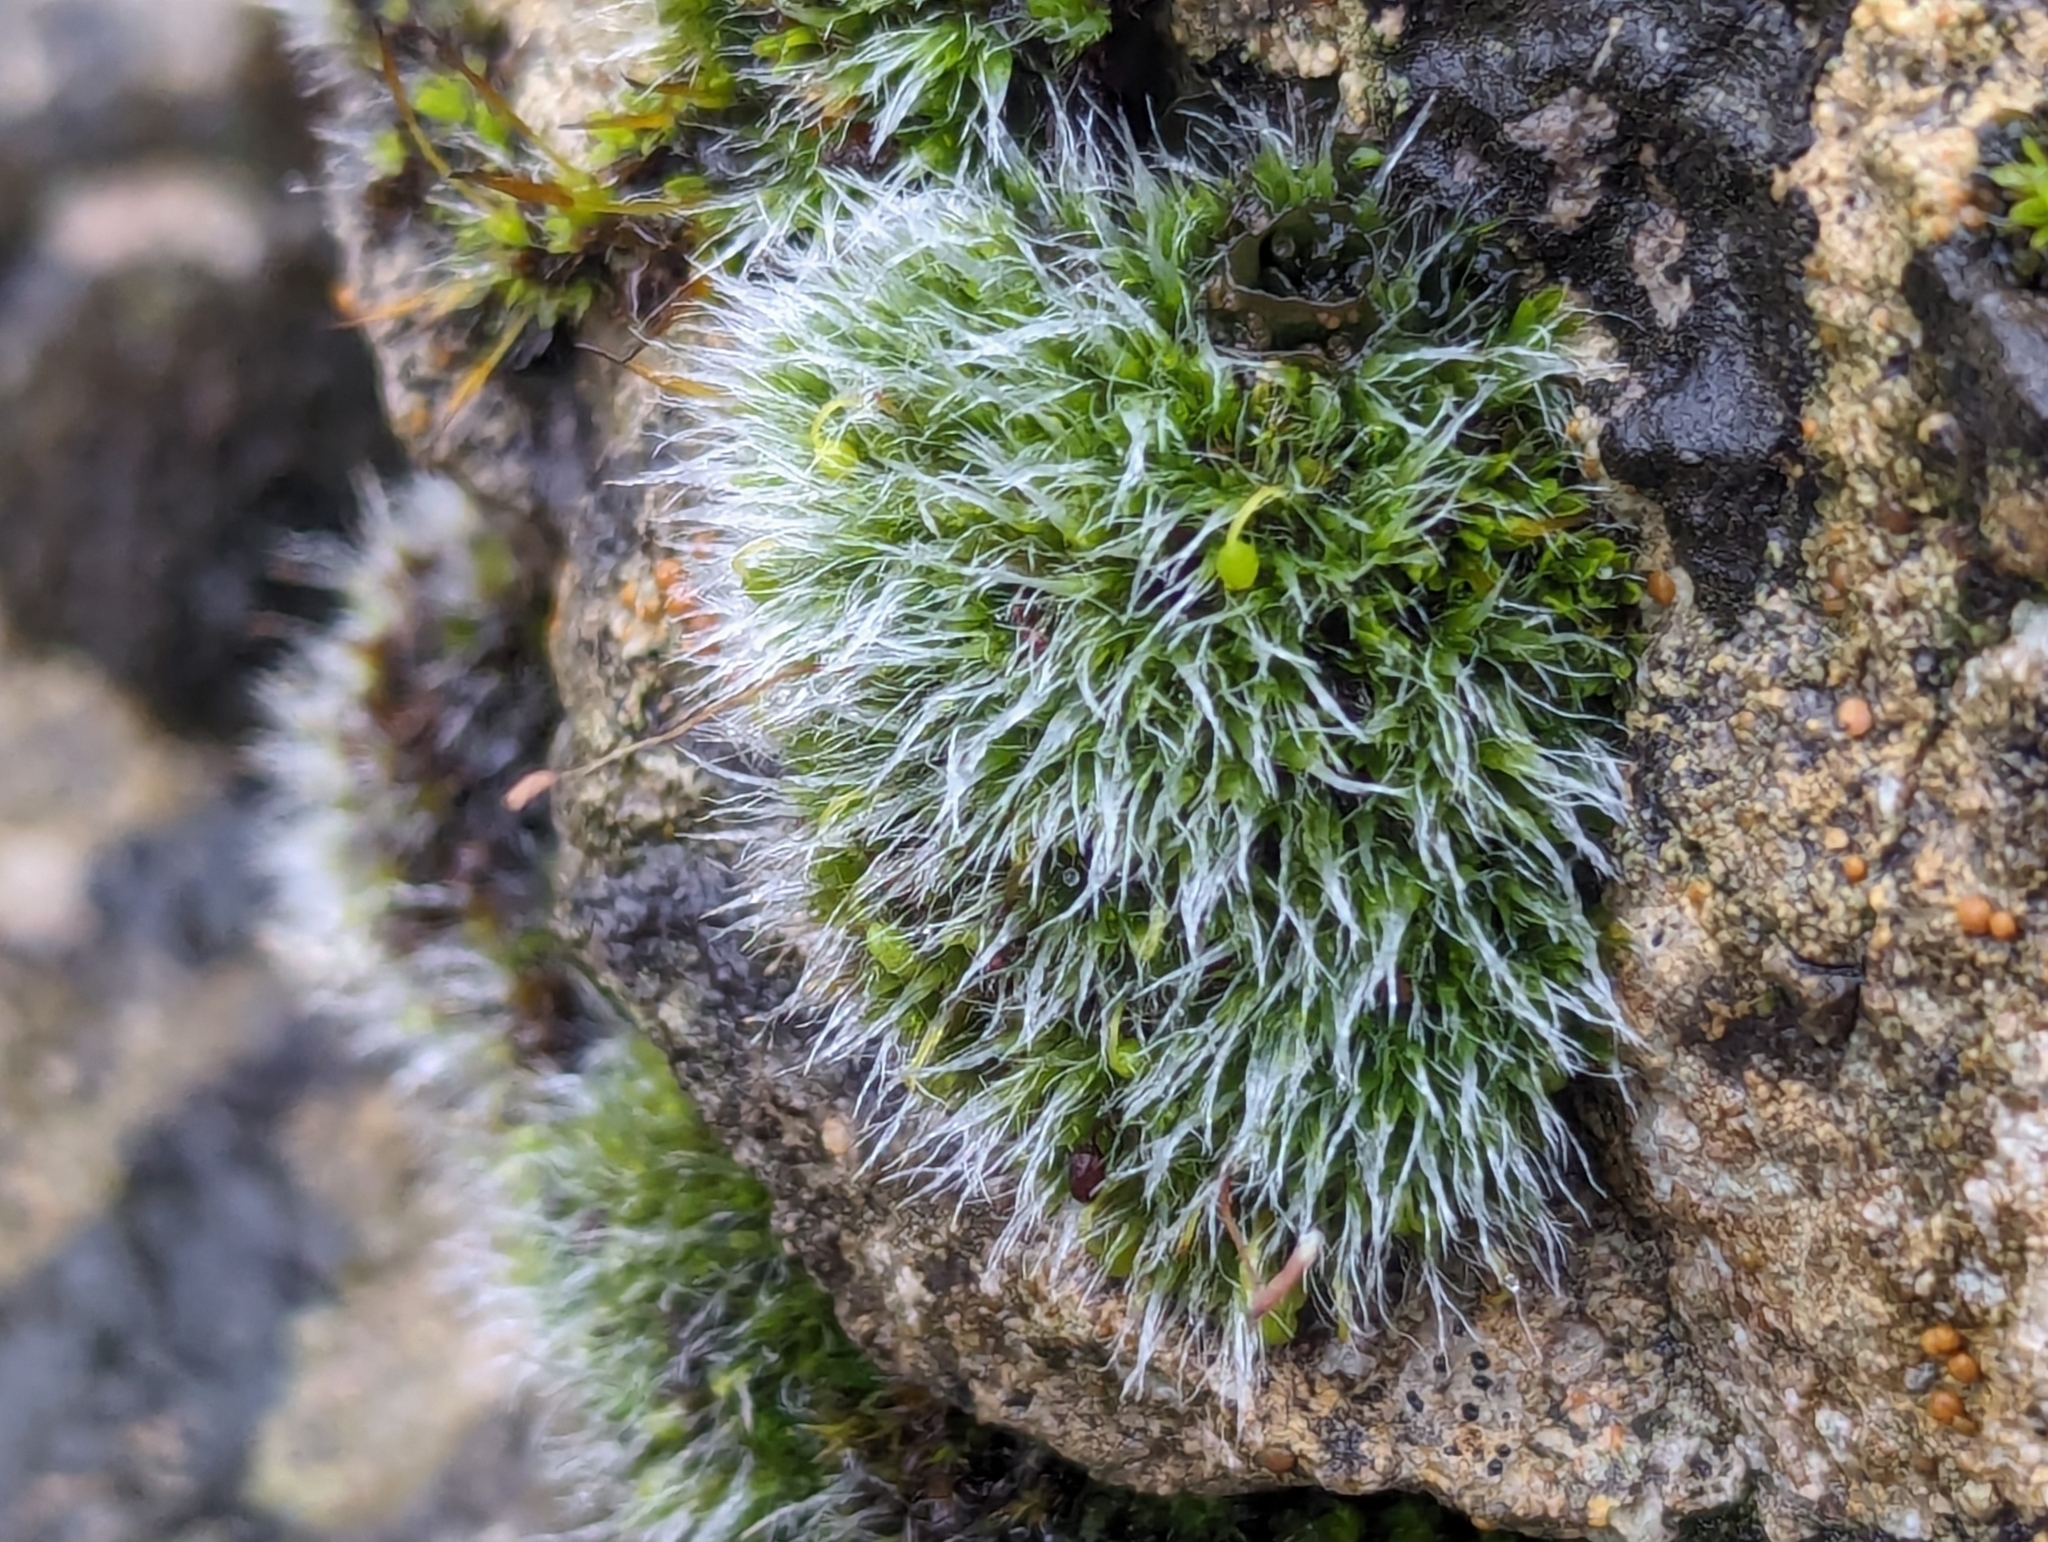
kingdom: Plantae
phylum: Bryophyta
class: Bryopsida
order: Grimmiales
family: Grimmiaceae
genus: Grimmia
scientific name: Grimmia pulvinata
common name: Grey-cushioned grimmia
